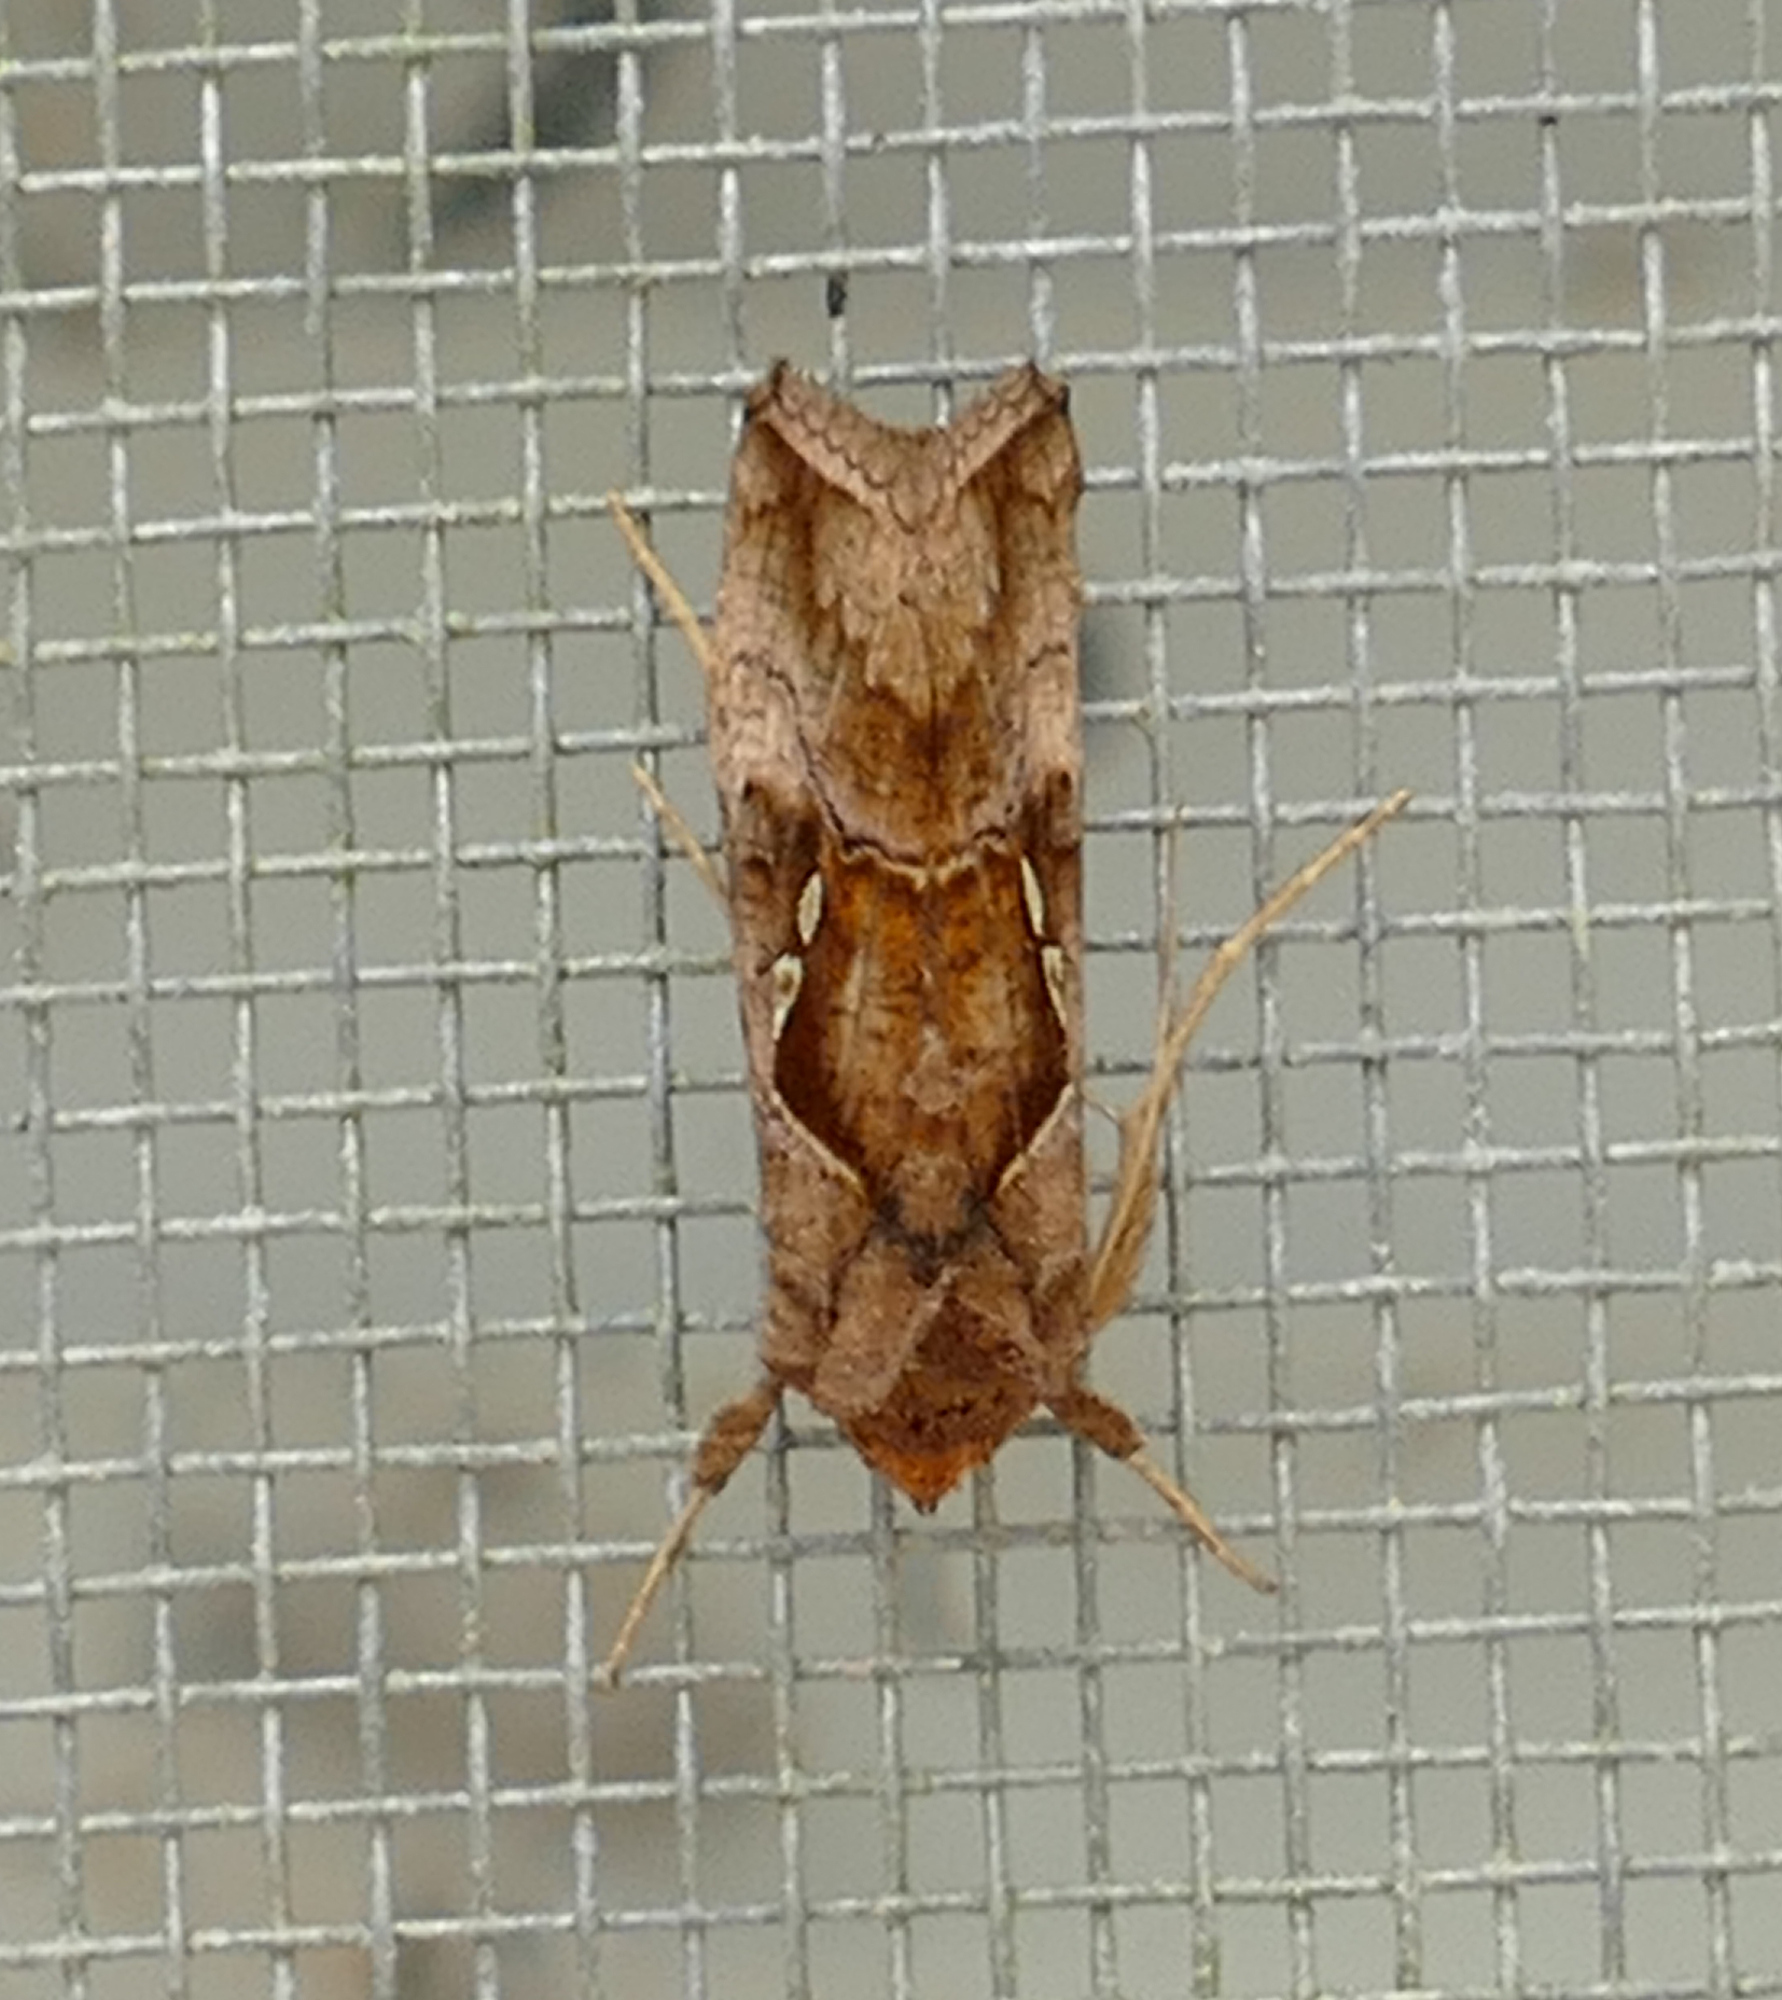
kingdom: Animalia
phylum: Arthropoda
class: Insecta
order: Lepidoptera
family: Noctuidae
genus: Enigmogramma
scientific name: Enigmogramma basigera
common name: Pink-washed looper moth
